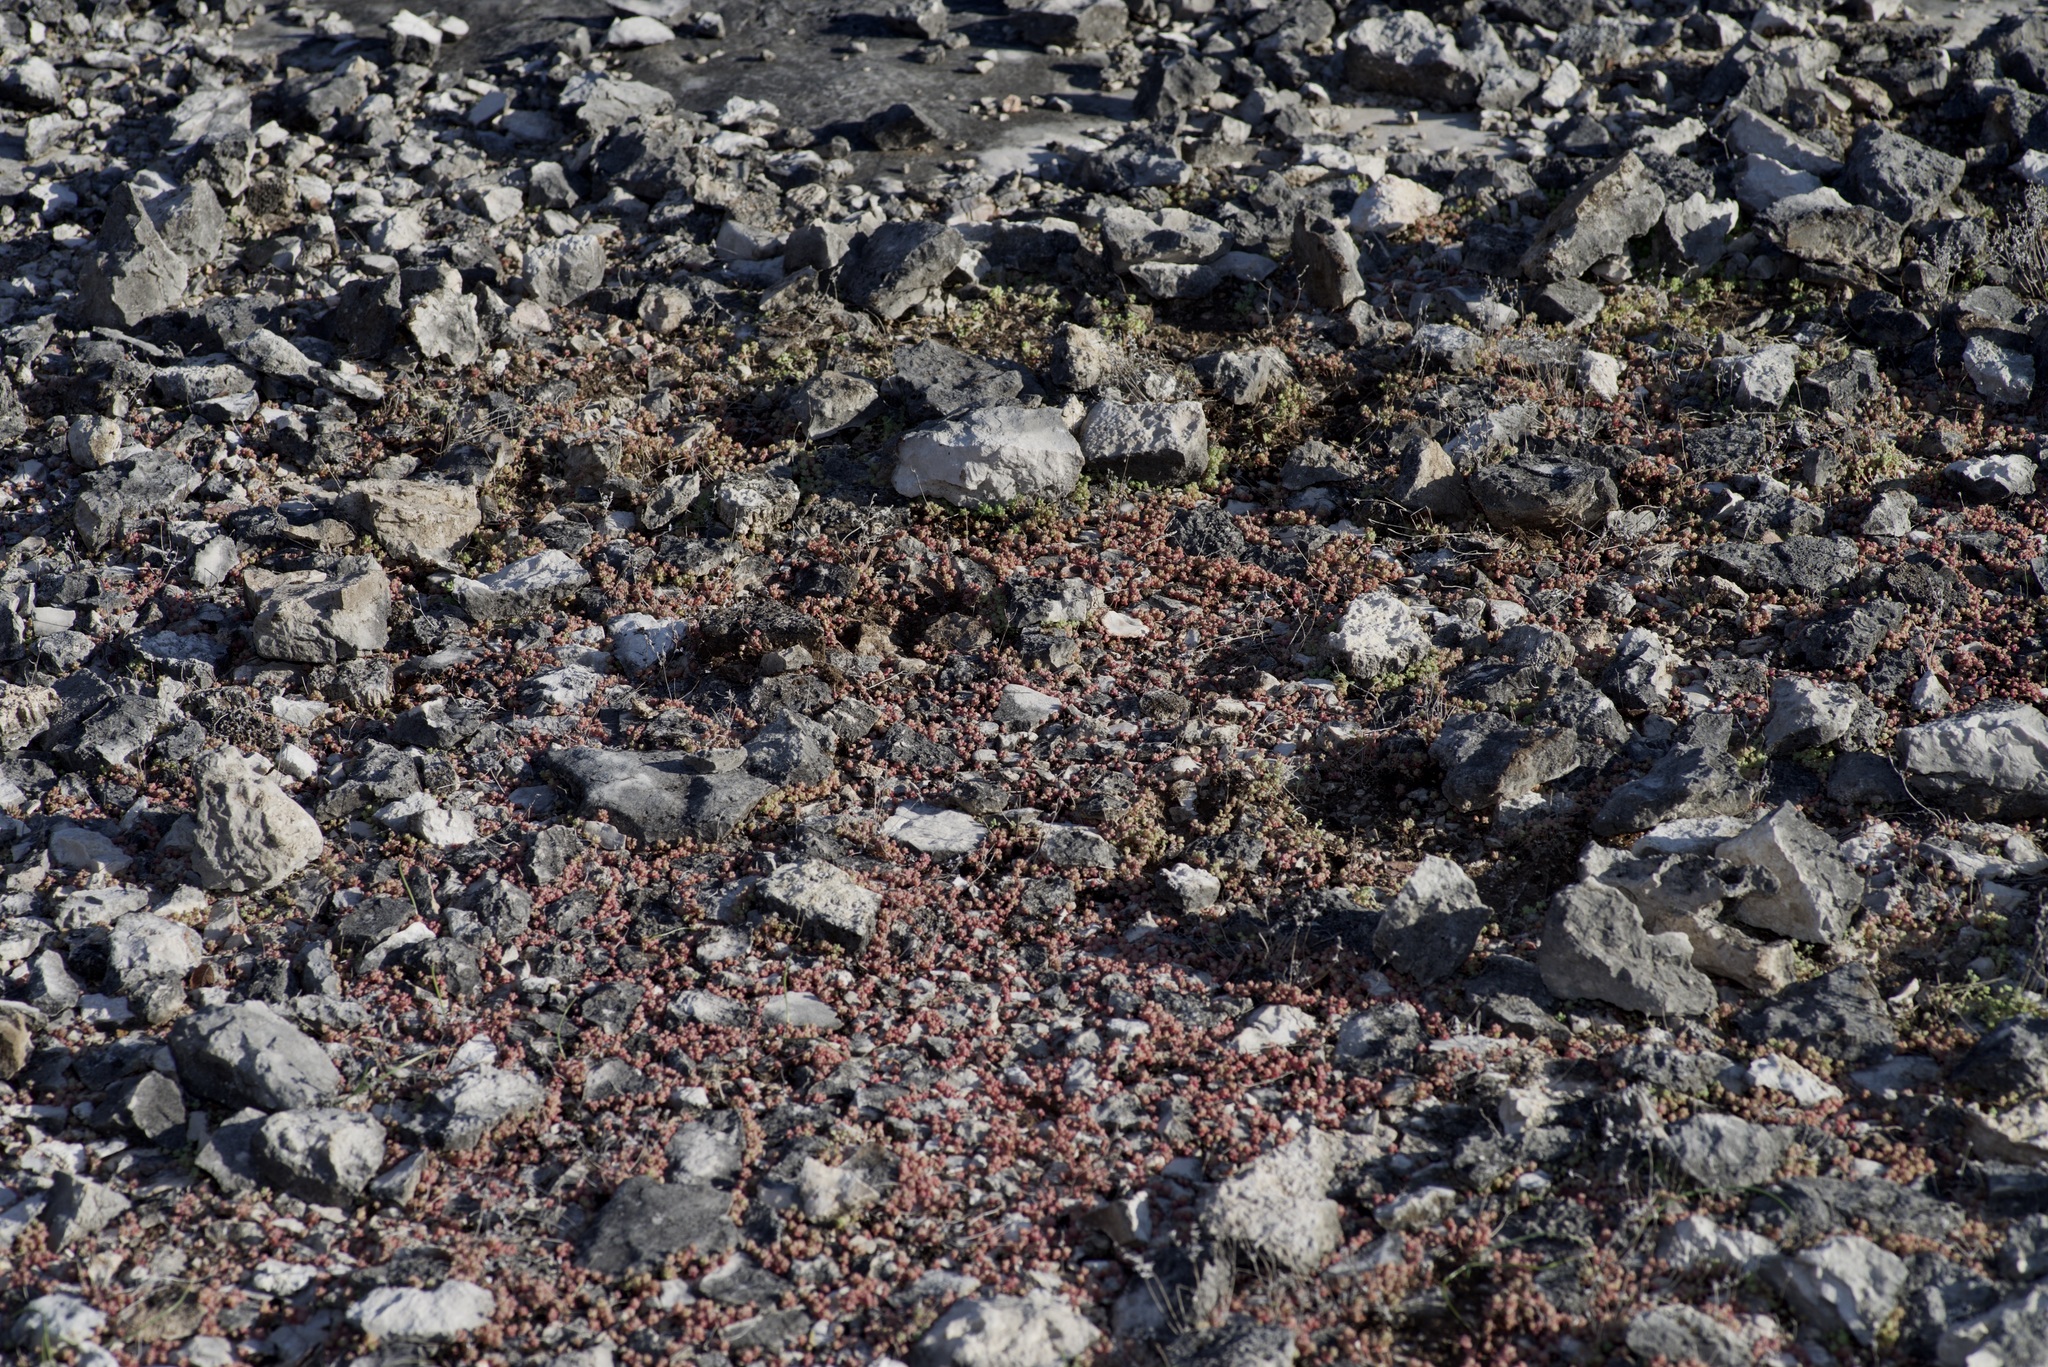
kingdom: Plantae
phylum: Tracheophyta
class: Magnoliopsida
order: Saxifragales
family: Crassulaceae
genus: Sedum
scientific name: Sedum nuttallii
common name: Yellow stonecrop
